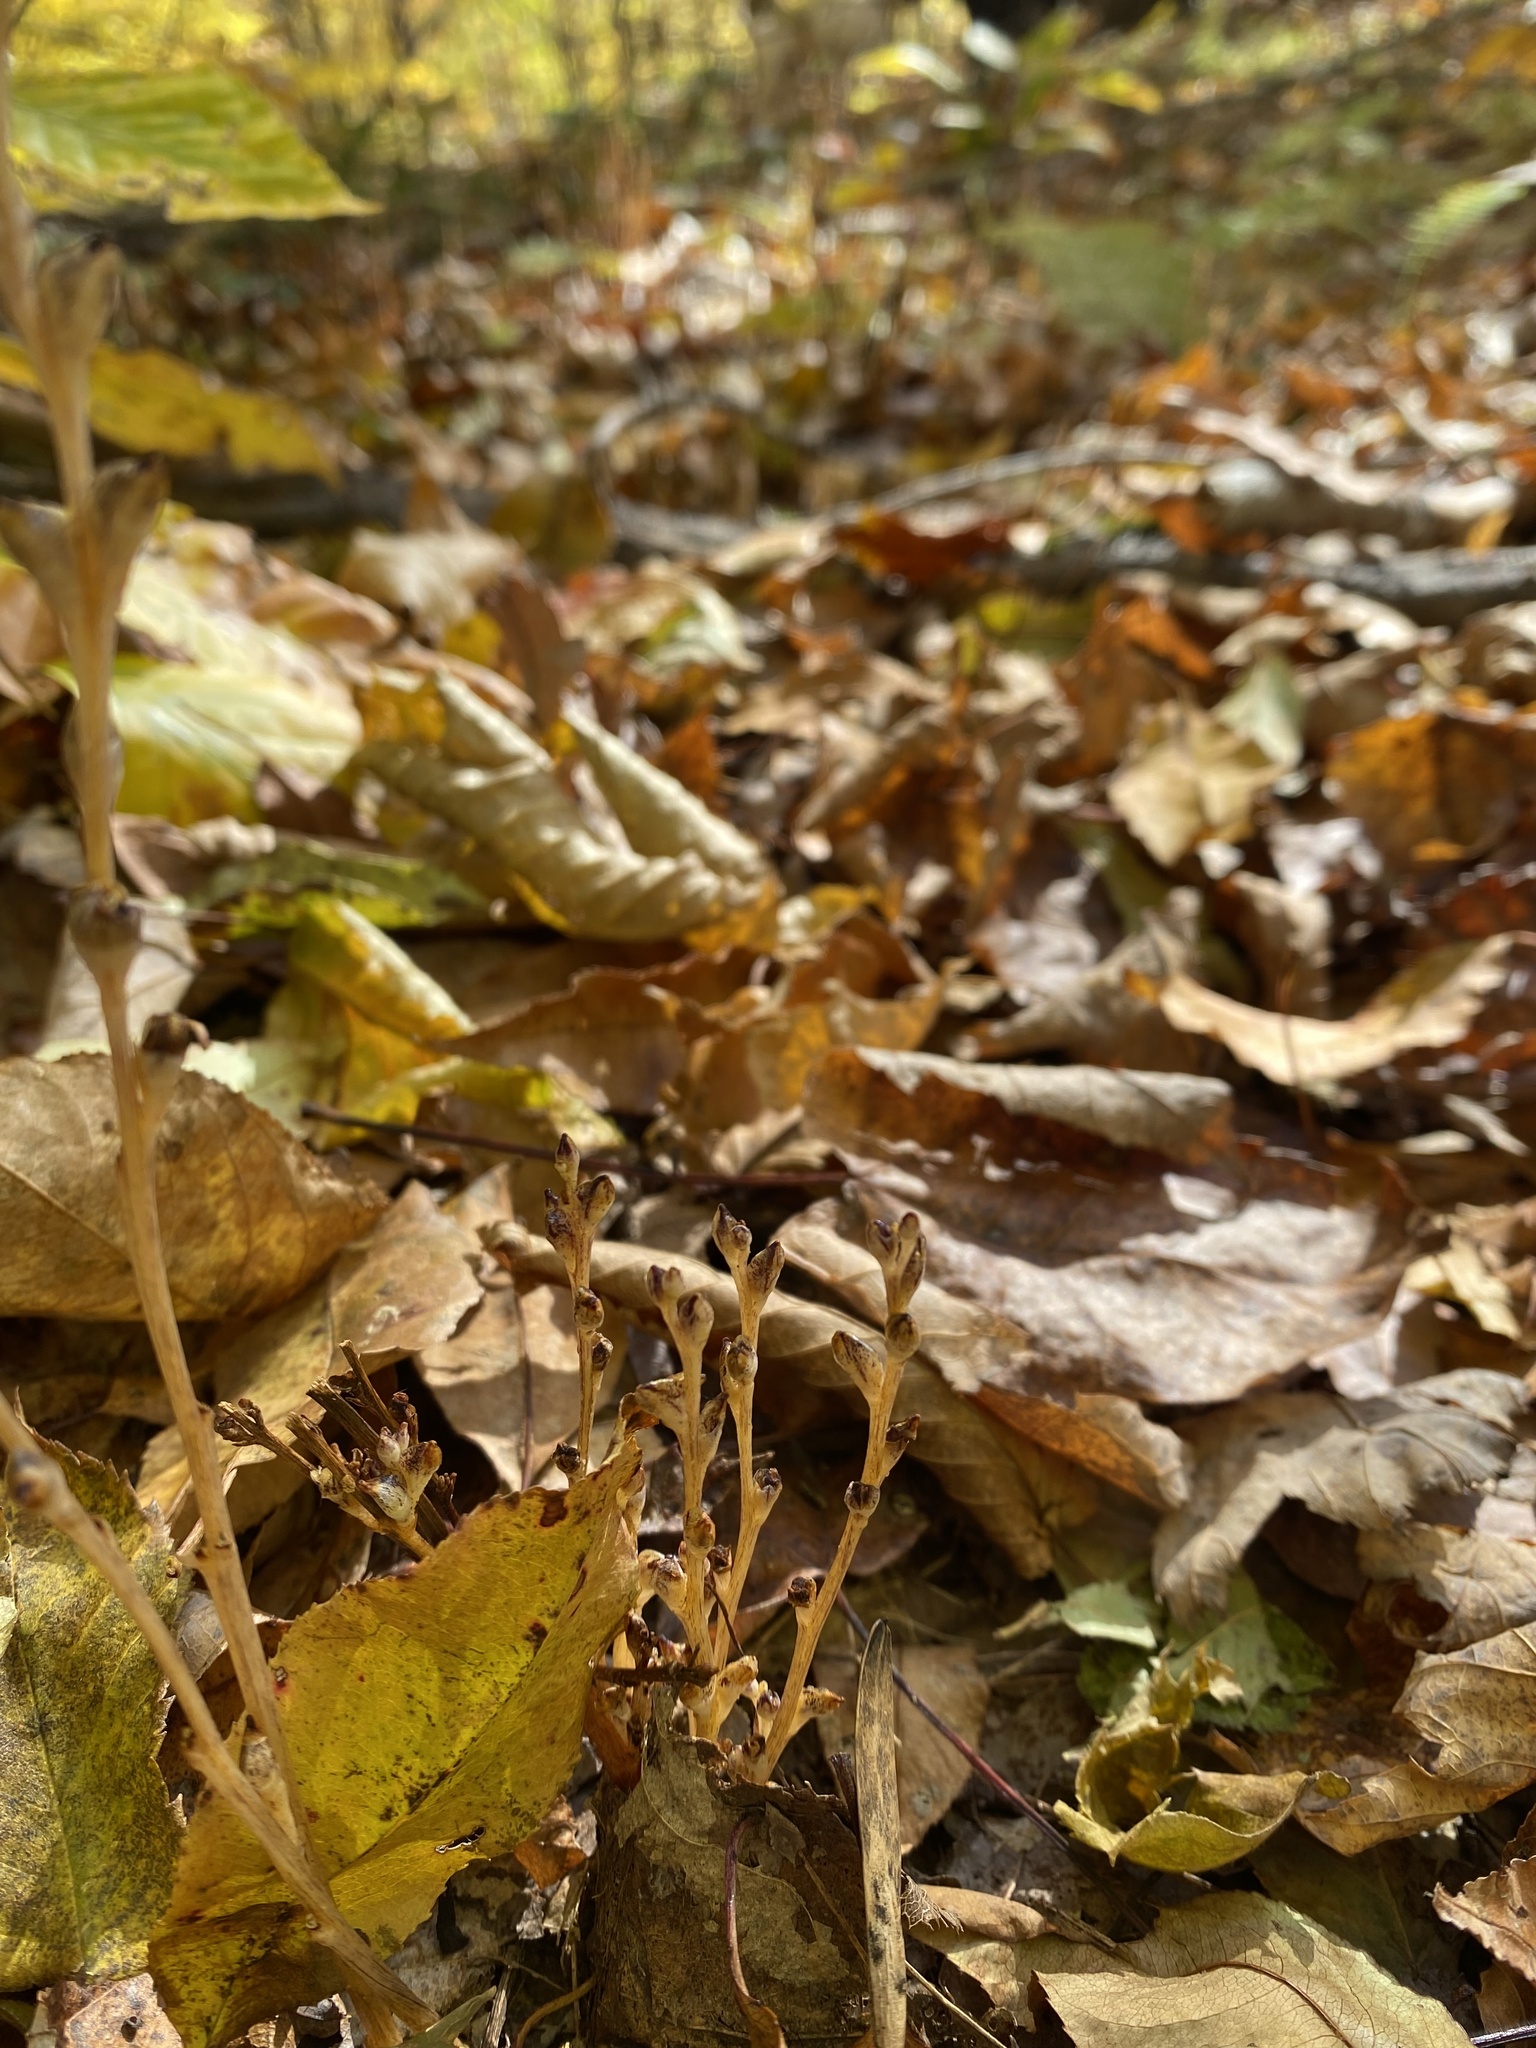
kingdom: Plantae
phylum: Tracheophyta
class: Magnoliopsida
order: Lamiales
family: Orobanchaceae
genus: Epifagus
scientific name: Epifagus virginiana
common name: Beechdrops
